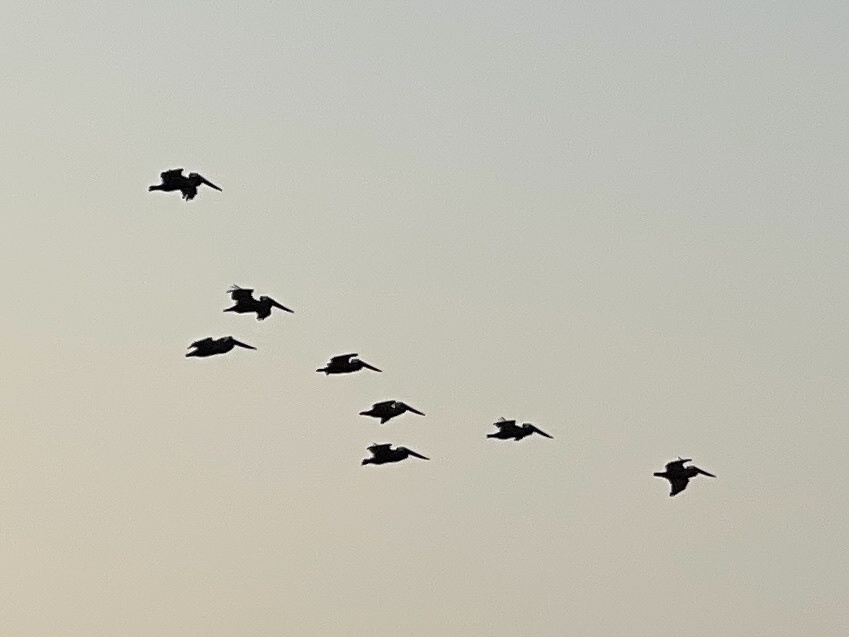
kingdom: Animalia
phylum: Chordata
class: Aves
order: Pelecaniformes
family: Pelecanidae
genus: Pelecanus
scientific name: Pelecanus occidentalis
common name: Brown pelican
